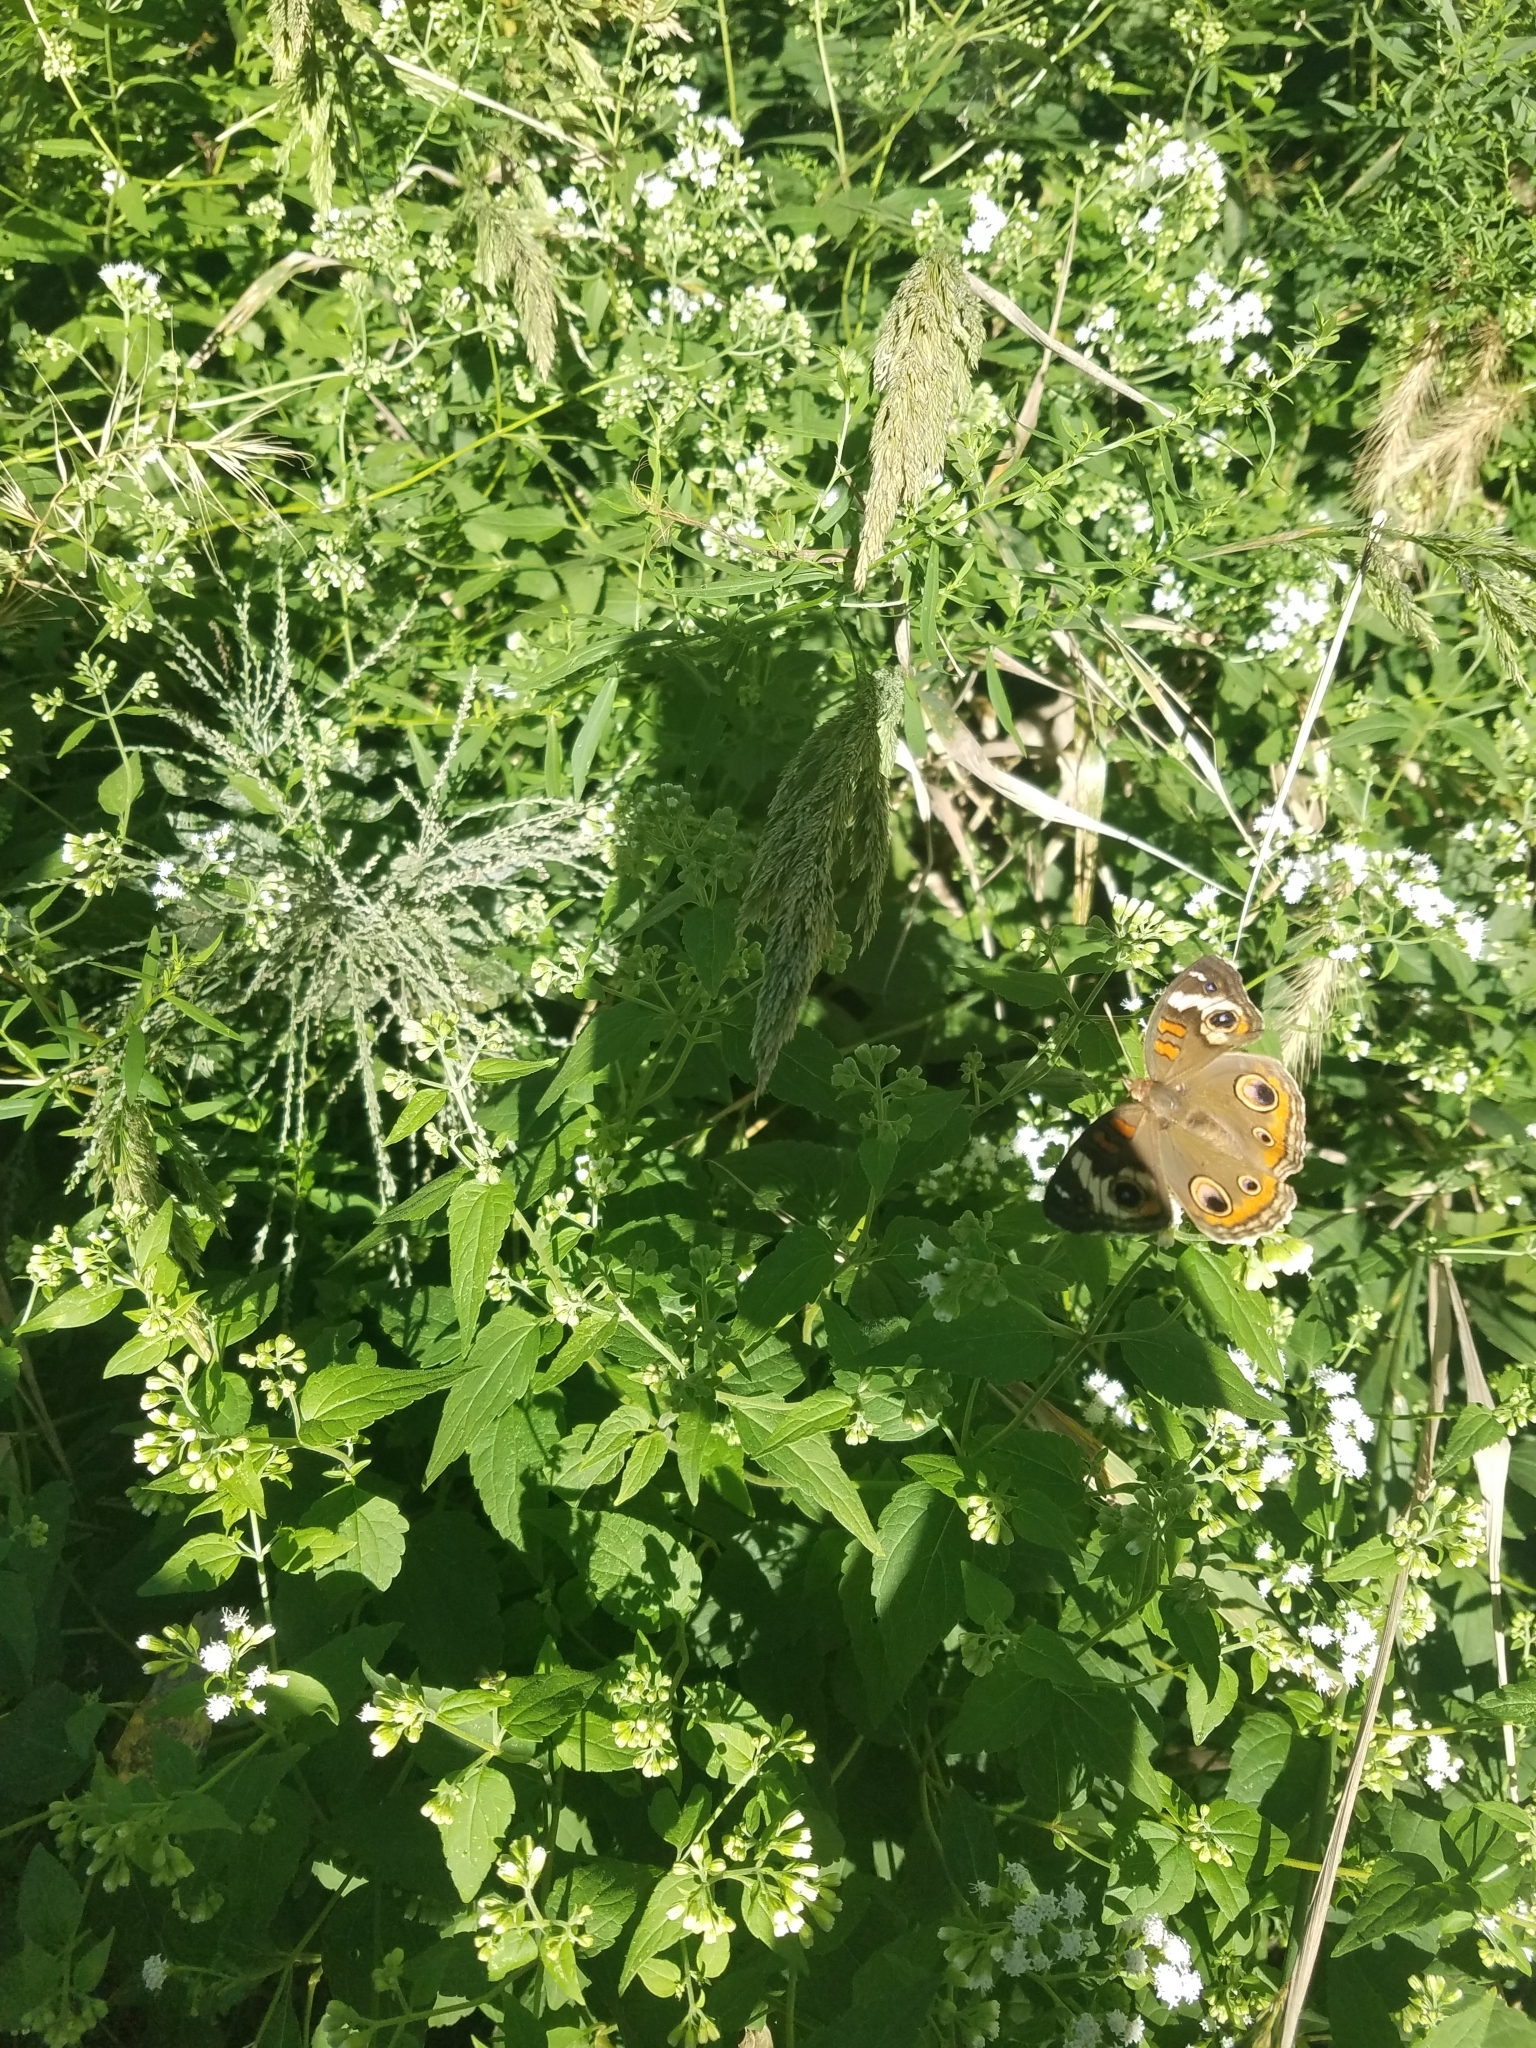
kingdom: Animalia
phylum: Arthropoda
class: Insecta
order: Lepidoptera
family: Nymphalidae
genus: Junonia
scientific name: Junonia coenia
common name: Common buckeye
